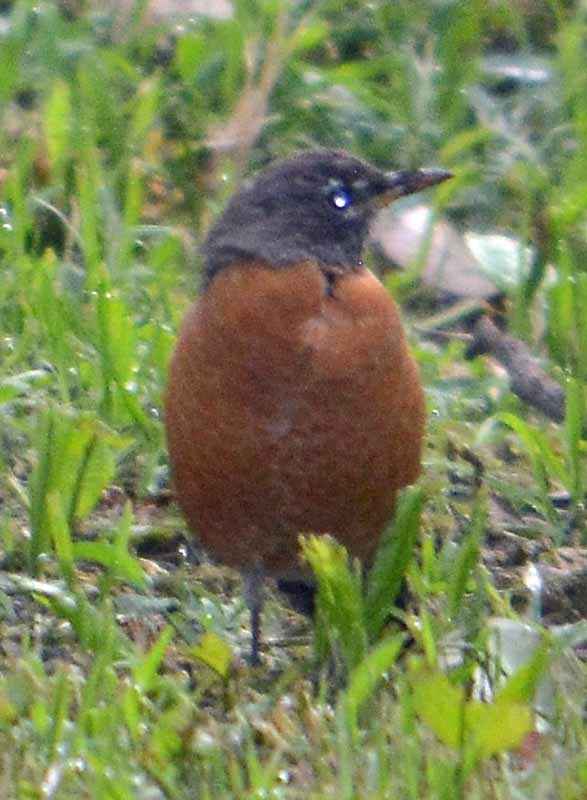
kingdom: Animalia
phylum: Chordata
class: Aves
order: Passeriformes
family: Turdidae
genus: Turdus
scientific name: Turdus migratorius
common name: American robin
